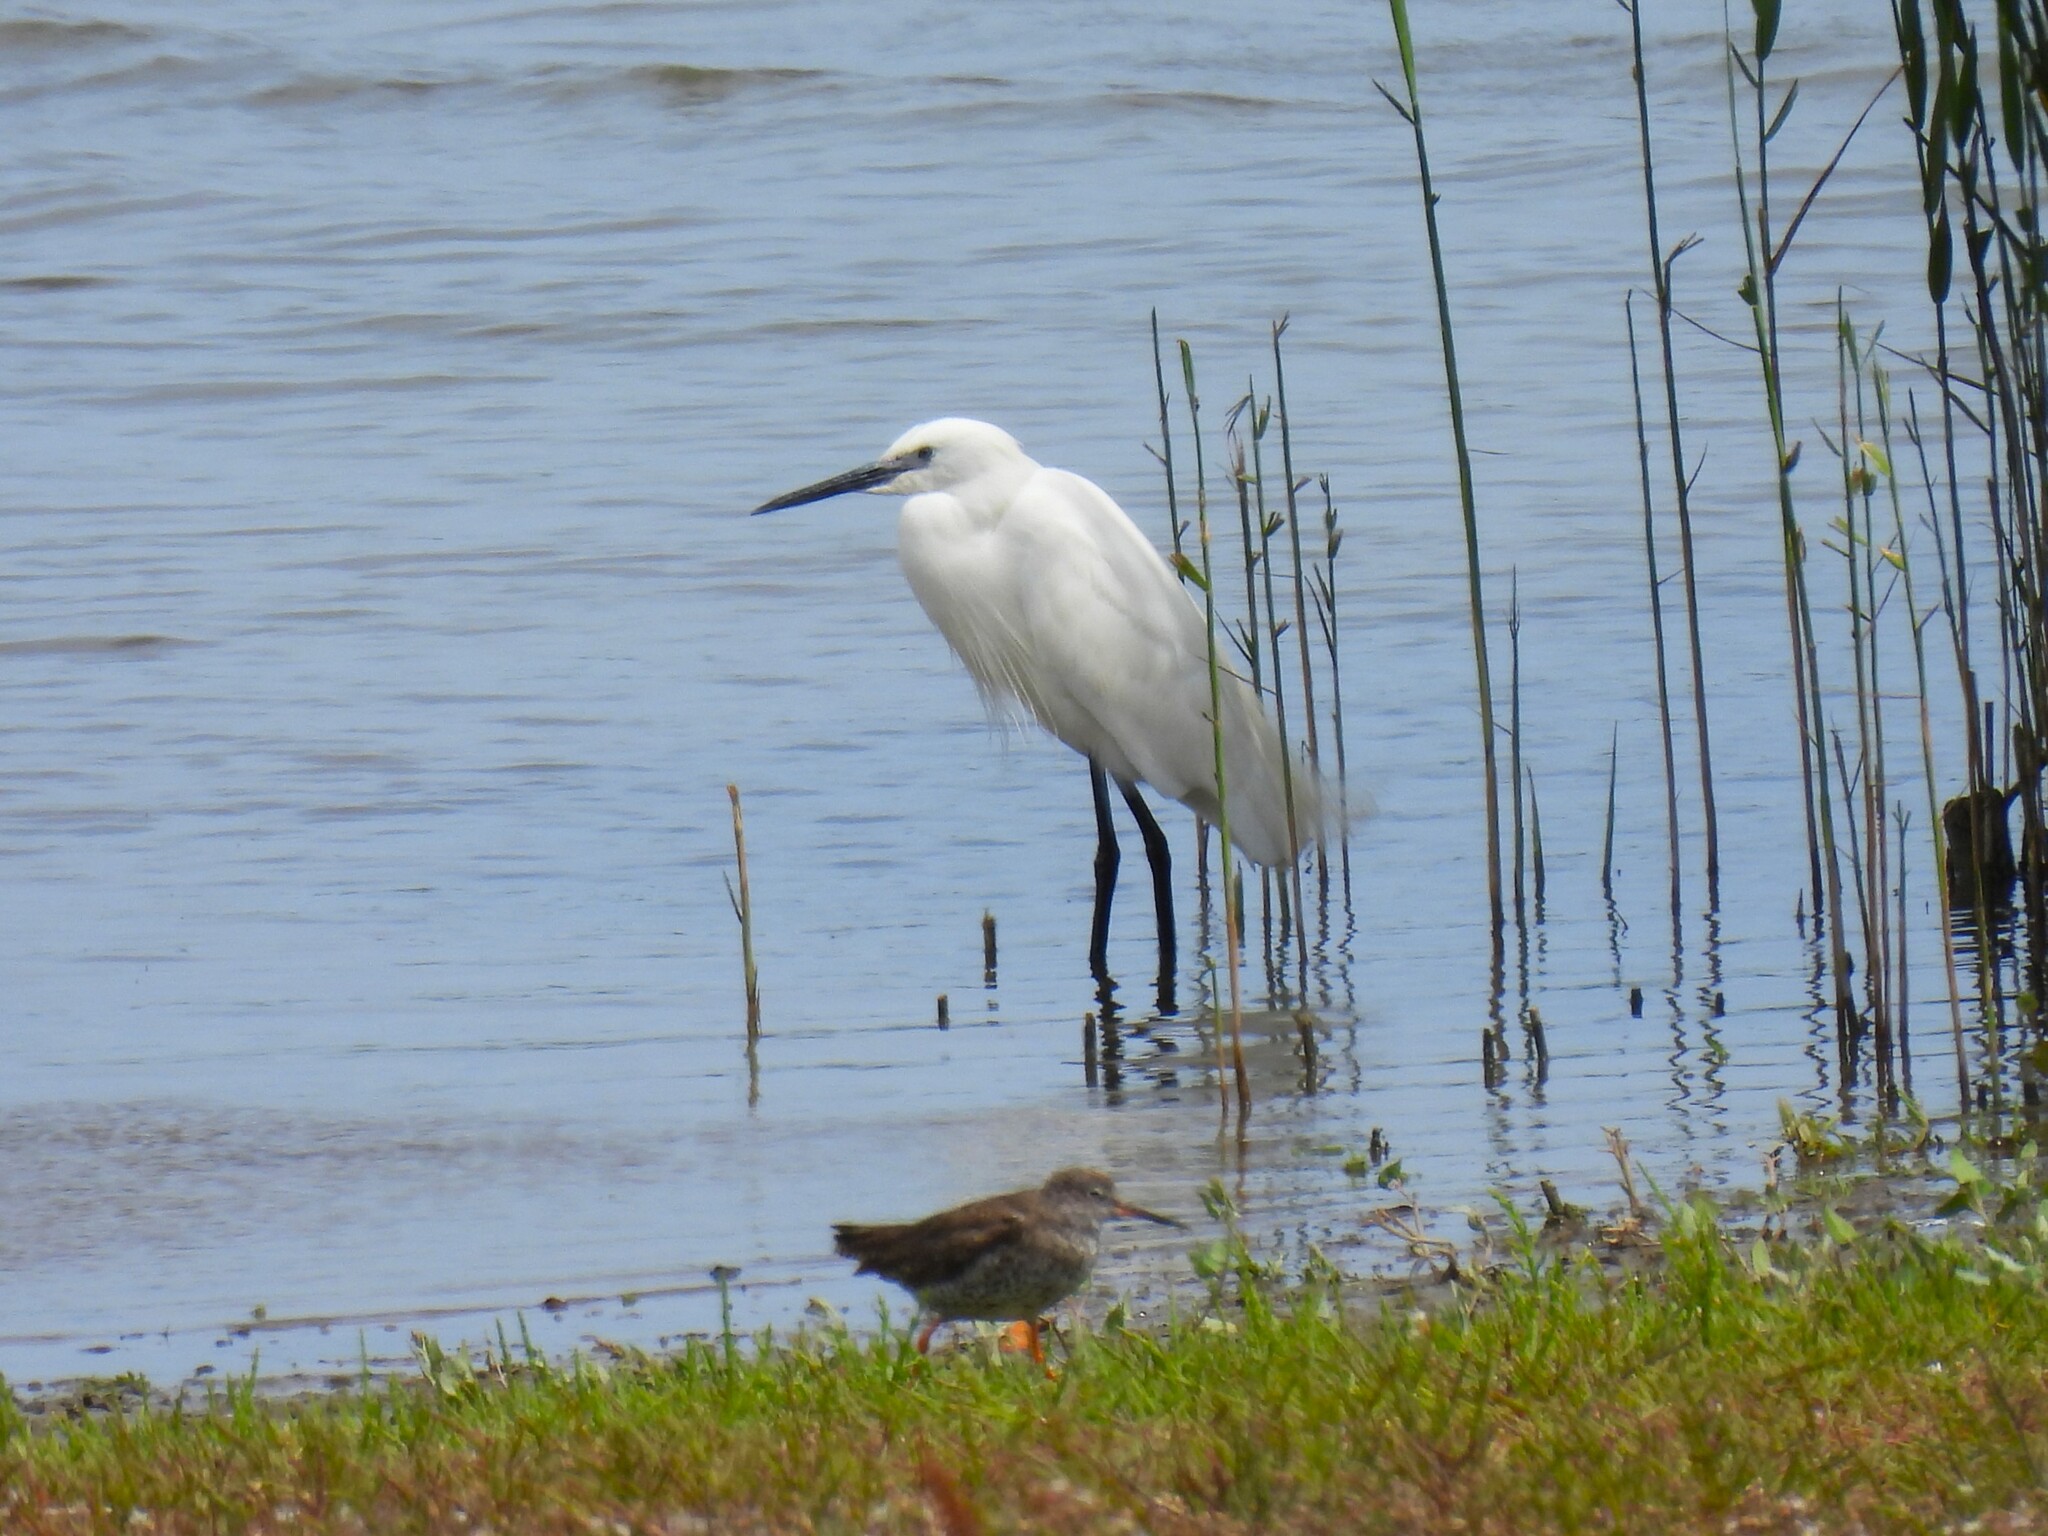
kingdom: Animalia
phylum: Chordata
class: Aves
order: Pelecaniformes
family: Ardeidae
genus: Egretta
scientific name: Egretta garzetta
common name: Little egret
